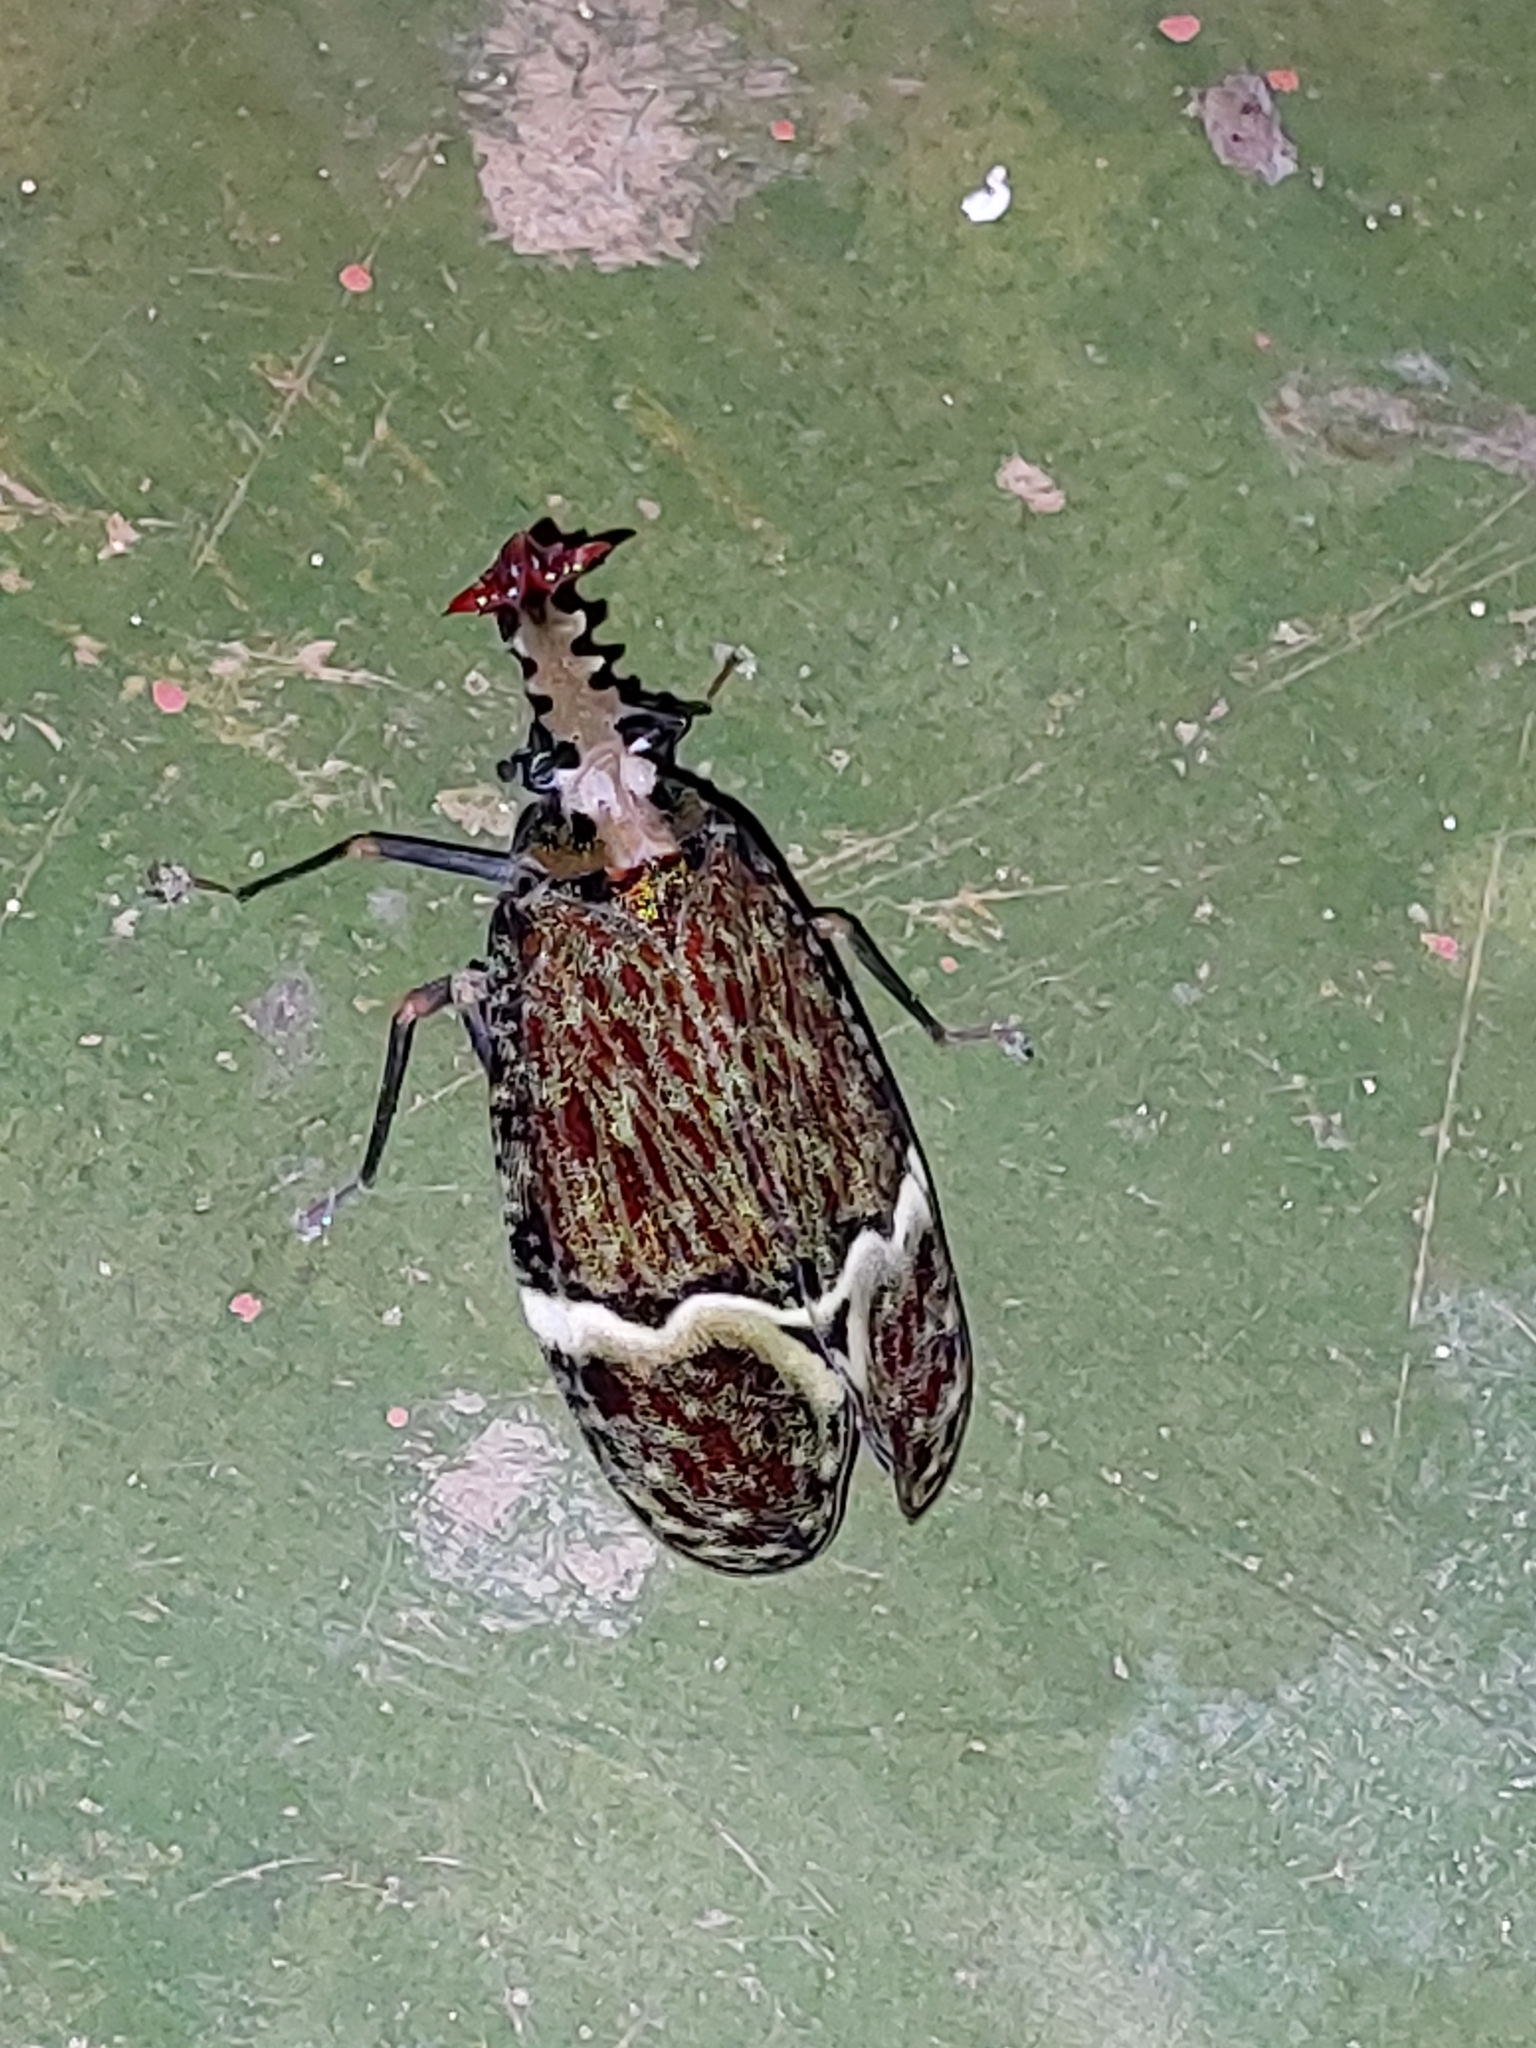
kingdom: Animalia
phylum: Arthropoda
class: Insecta
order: Hemiptera
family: Fulgoridae
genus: Phrictus
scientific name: Phrictus quinquepartitus
